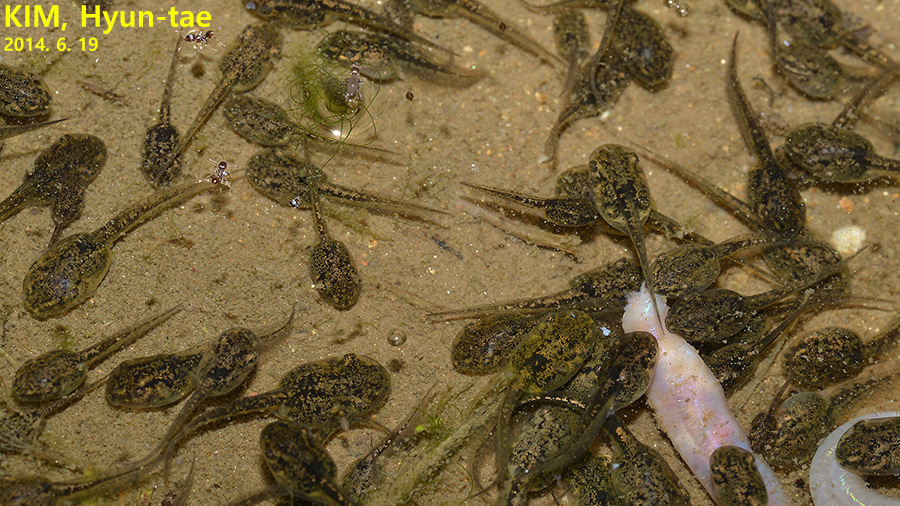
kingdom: Animalia
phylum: Chordata
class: Amphibia
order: Anura
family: Hylidae
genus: Dryophytes
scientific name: Dryophytes japonicus
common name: Japanese treefrog
